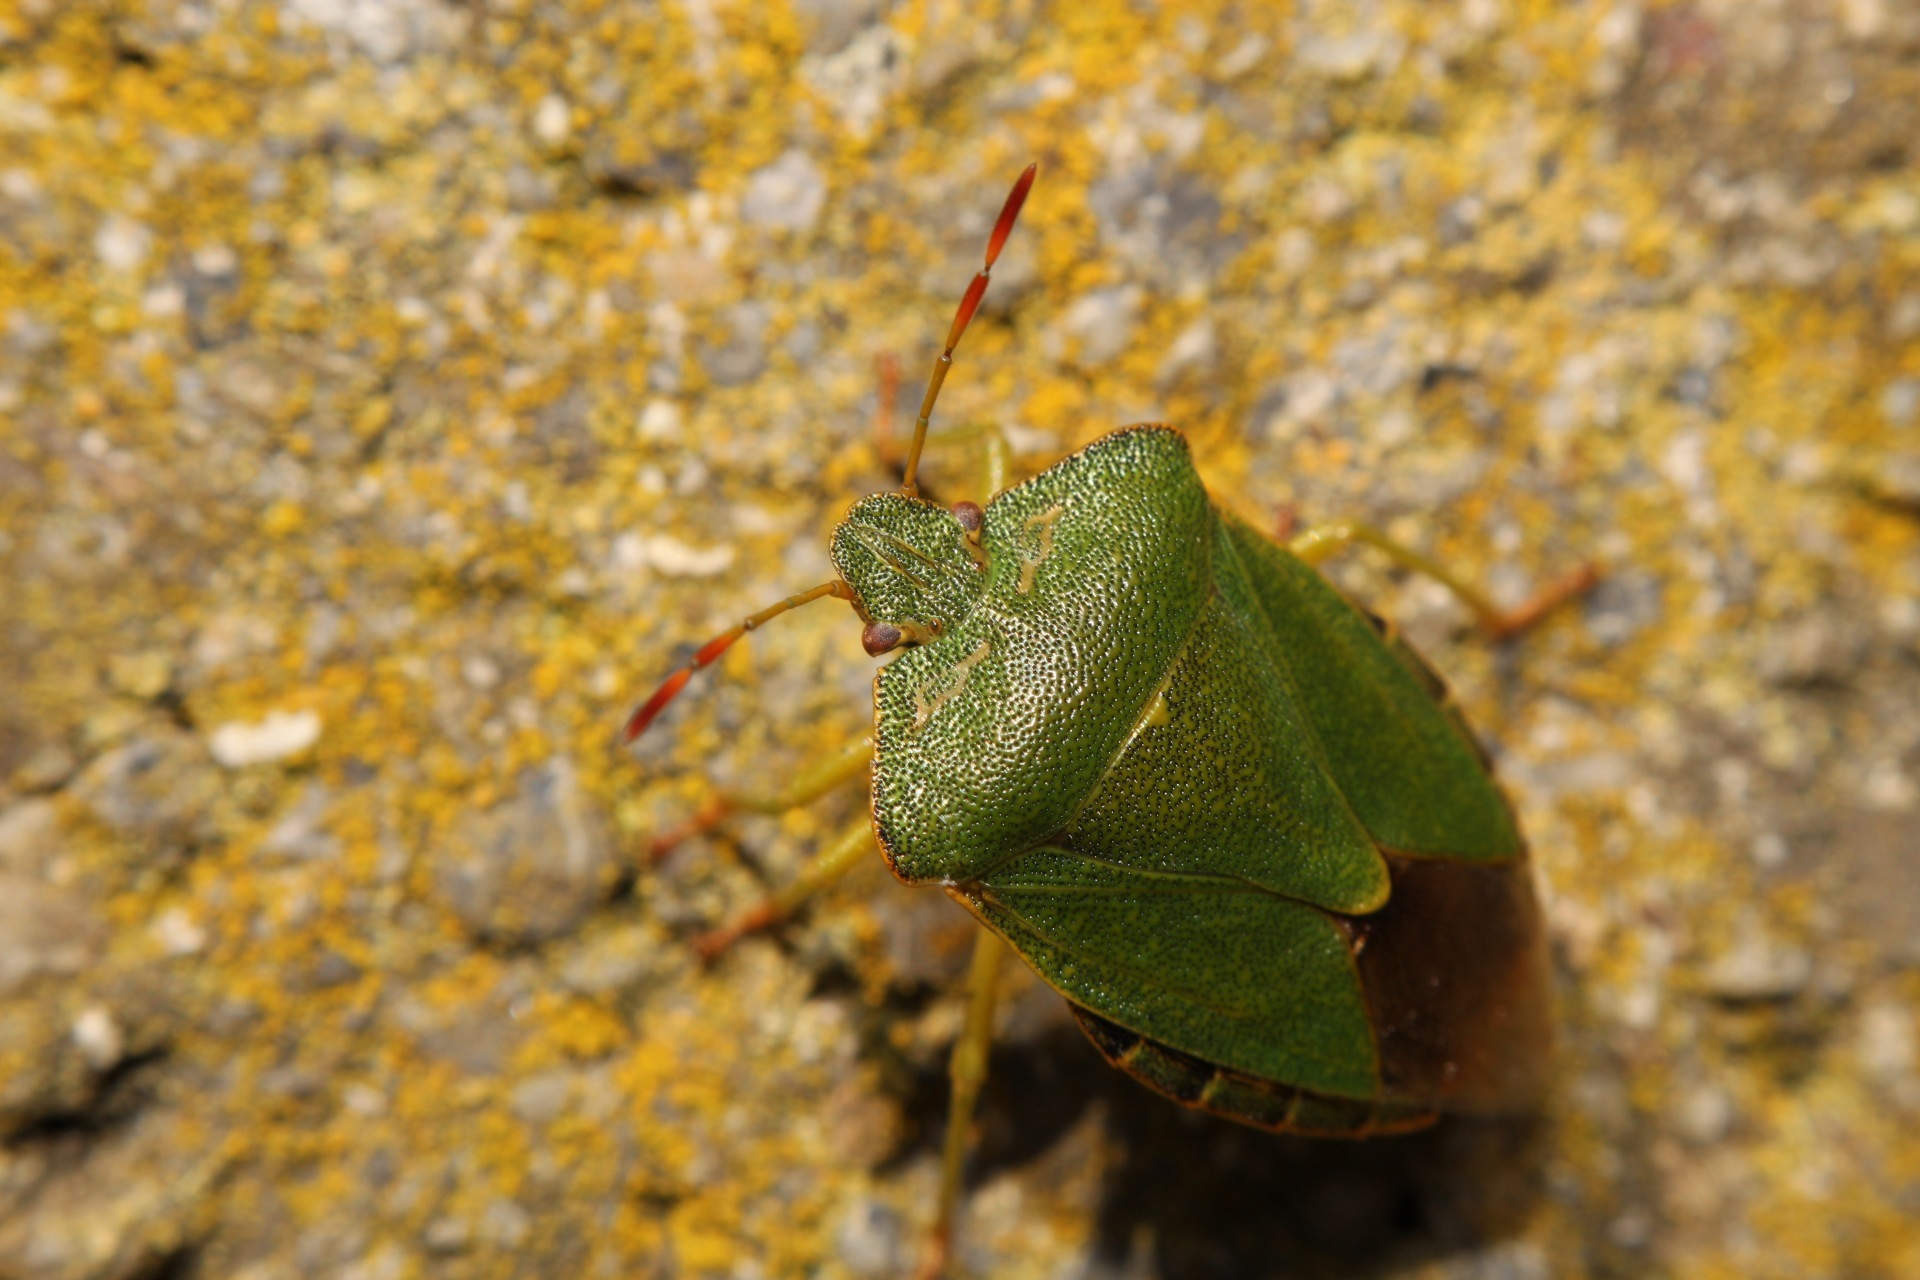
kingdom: Animalia
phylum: Arthropoda
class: Insecta
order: Hemiptera
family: Pentatomidae
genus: Palomena
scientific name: Palomena prasina
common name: Green shieldbug
